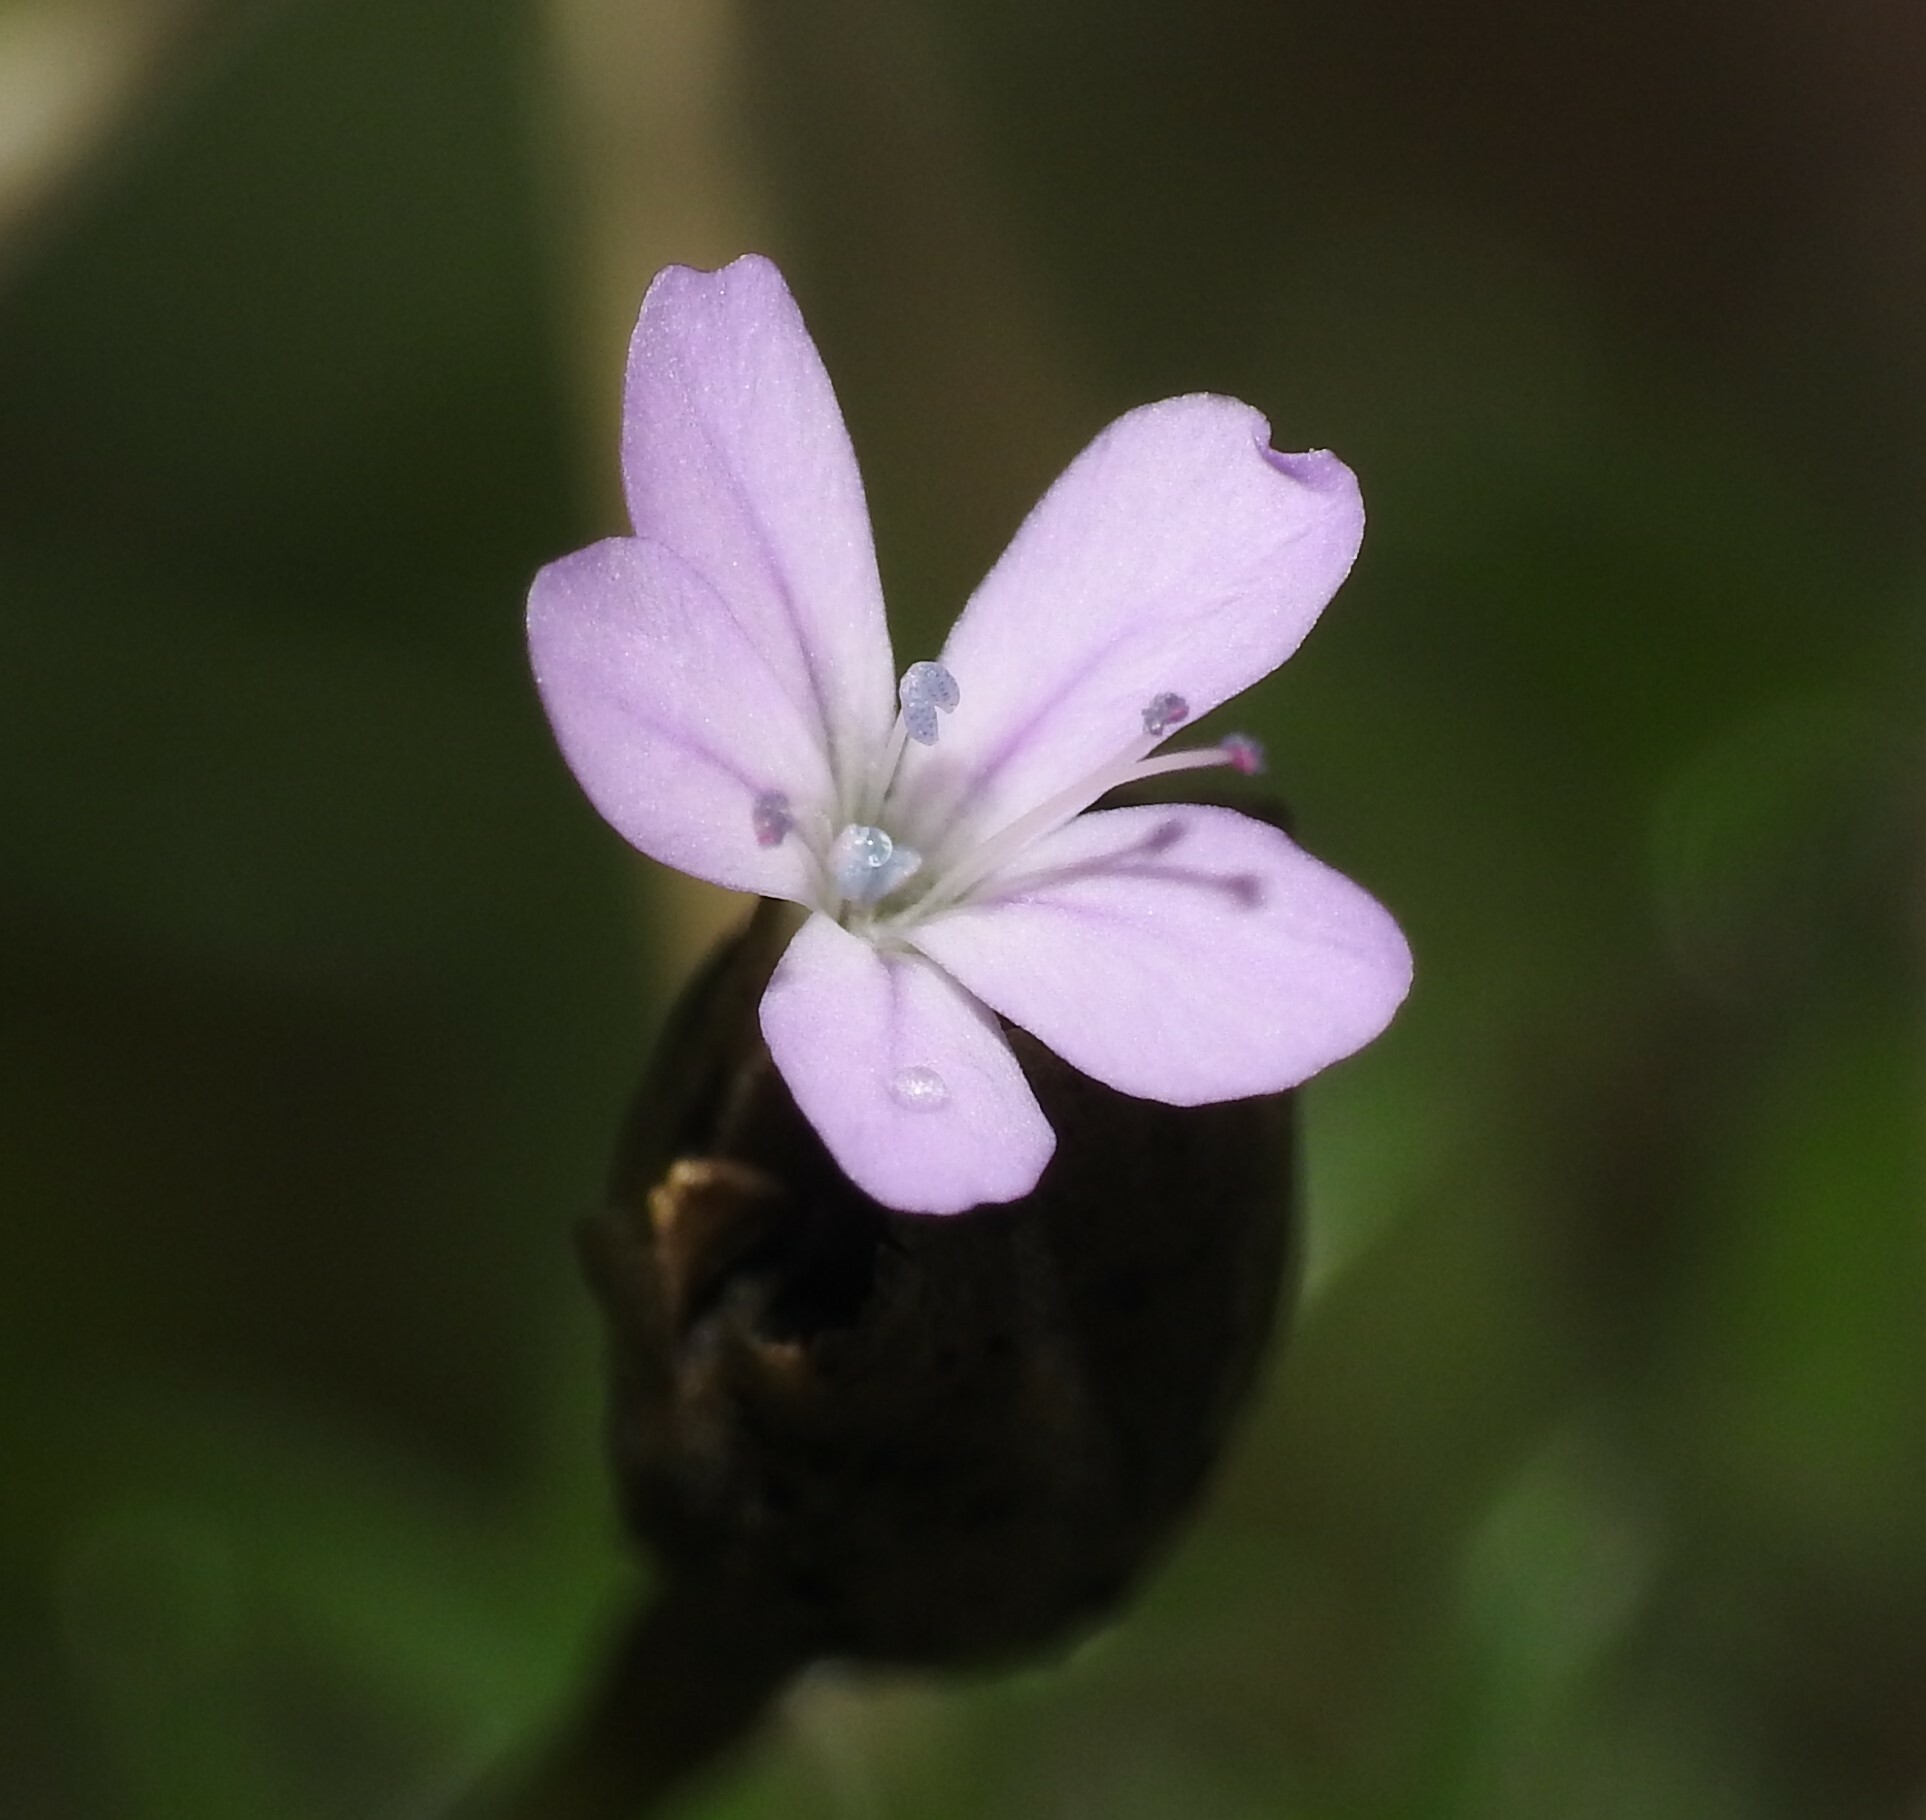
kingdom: Plantae
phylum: Tracheophyta
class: Magnoliopsida
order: Caryophyllales
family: Caryophyllaceae
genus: Petrorhagia
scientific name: Petrorhagia prolifera
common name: Proliferous pink
